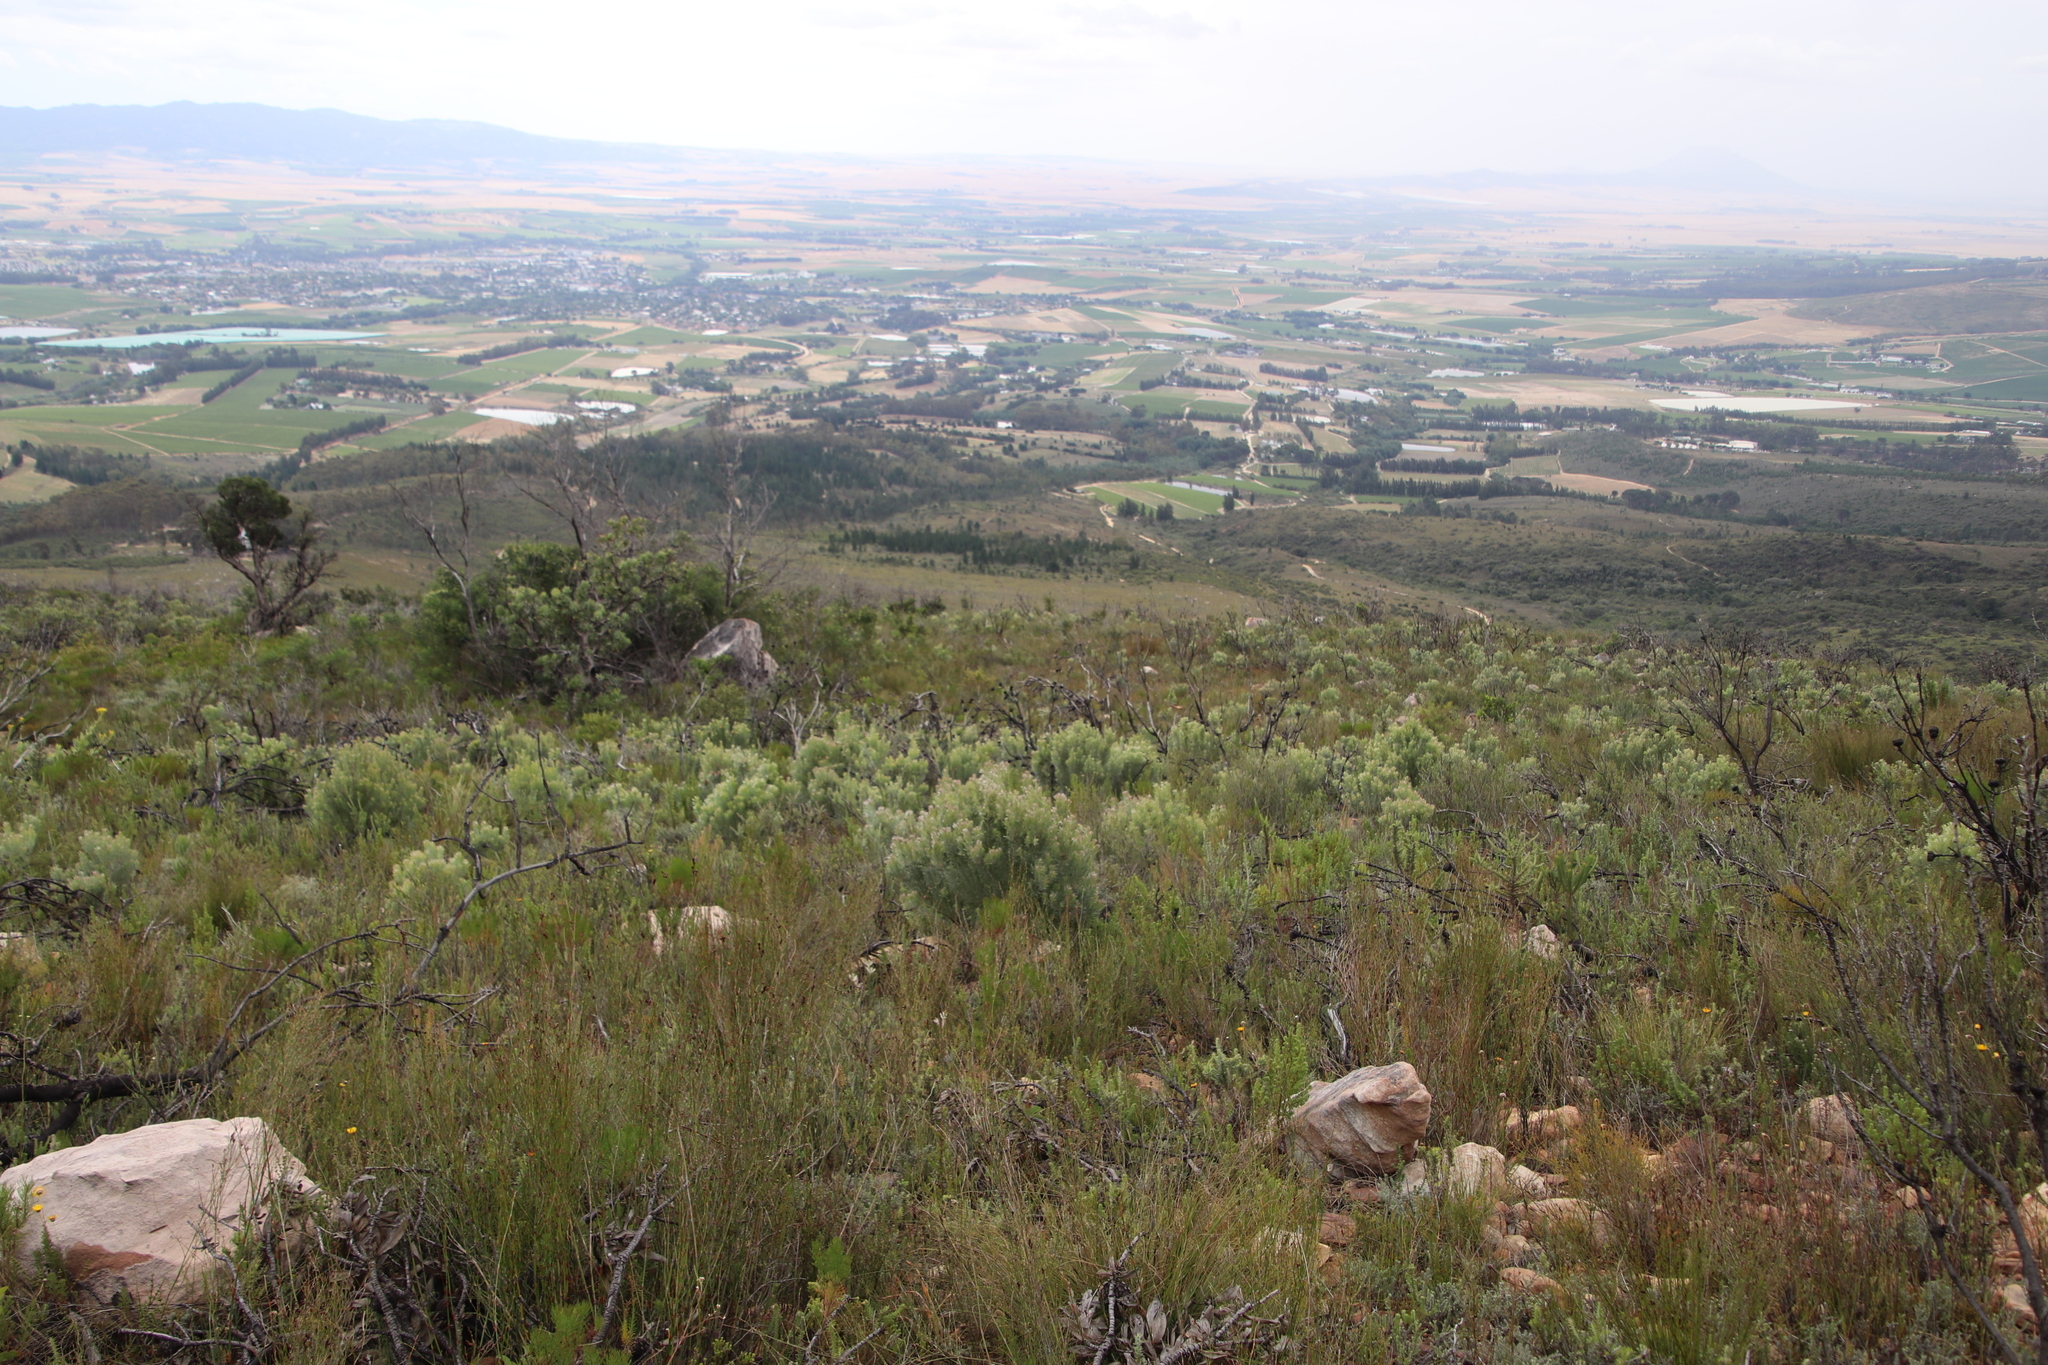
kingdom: Plantae
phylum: Tracheophyta
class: Magnoliopsida
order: Proteales
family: Proteaceae
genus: Leucadendron
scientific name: Leucadendron rubrum
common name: Spinning top
